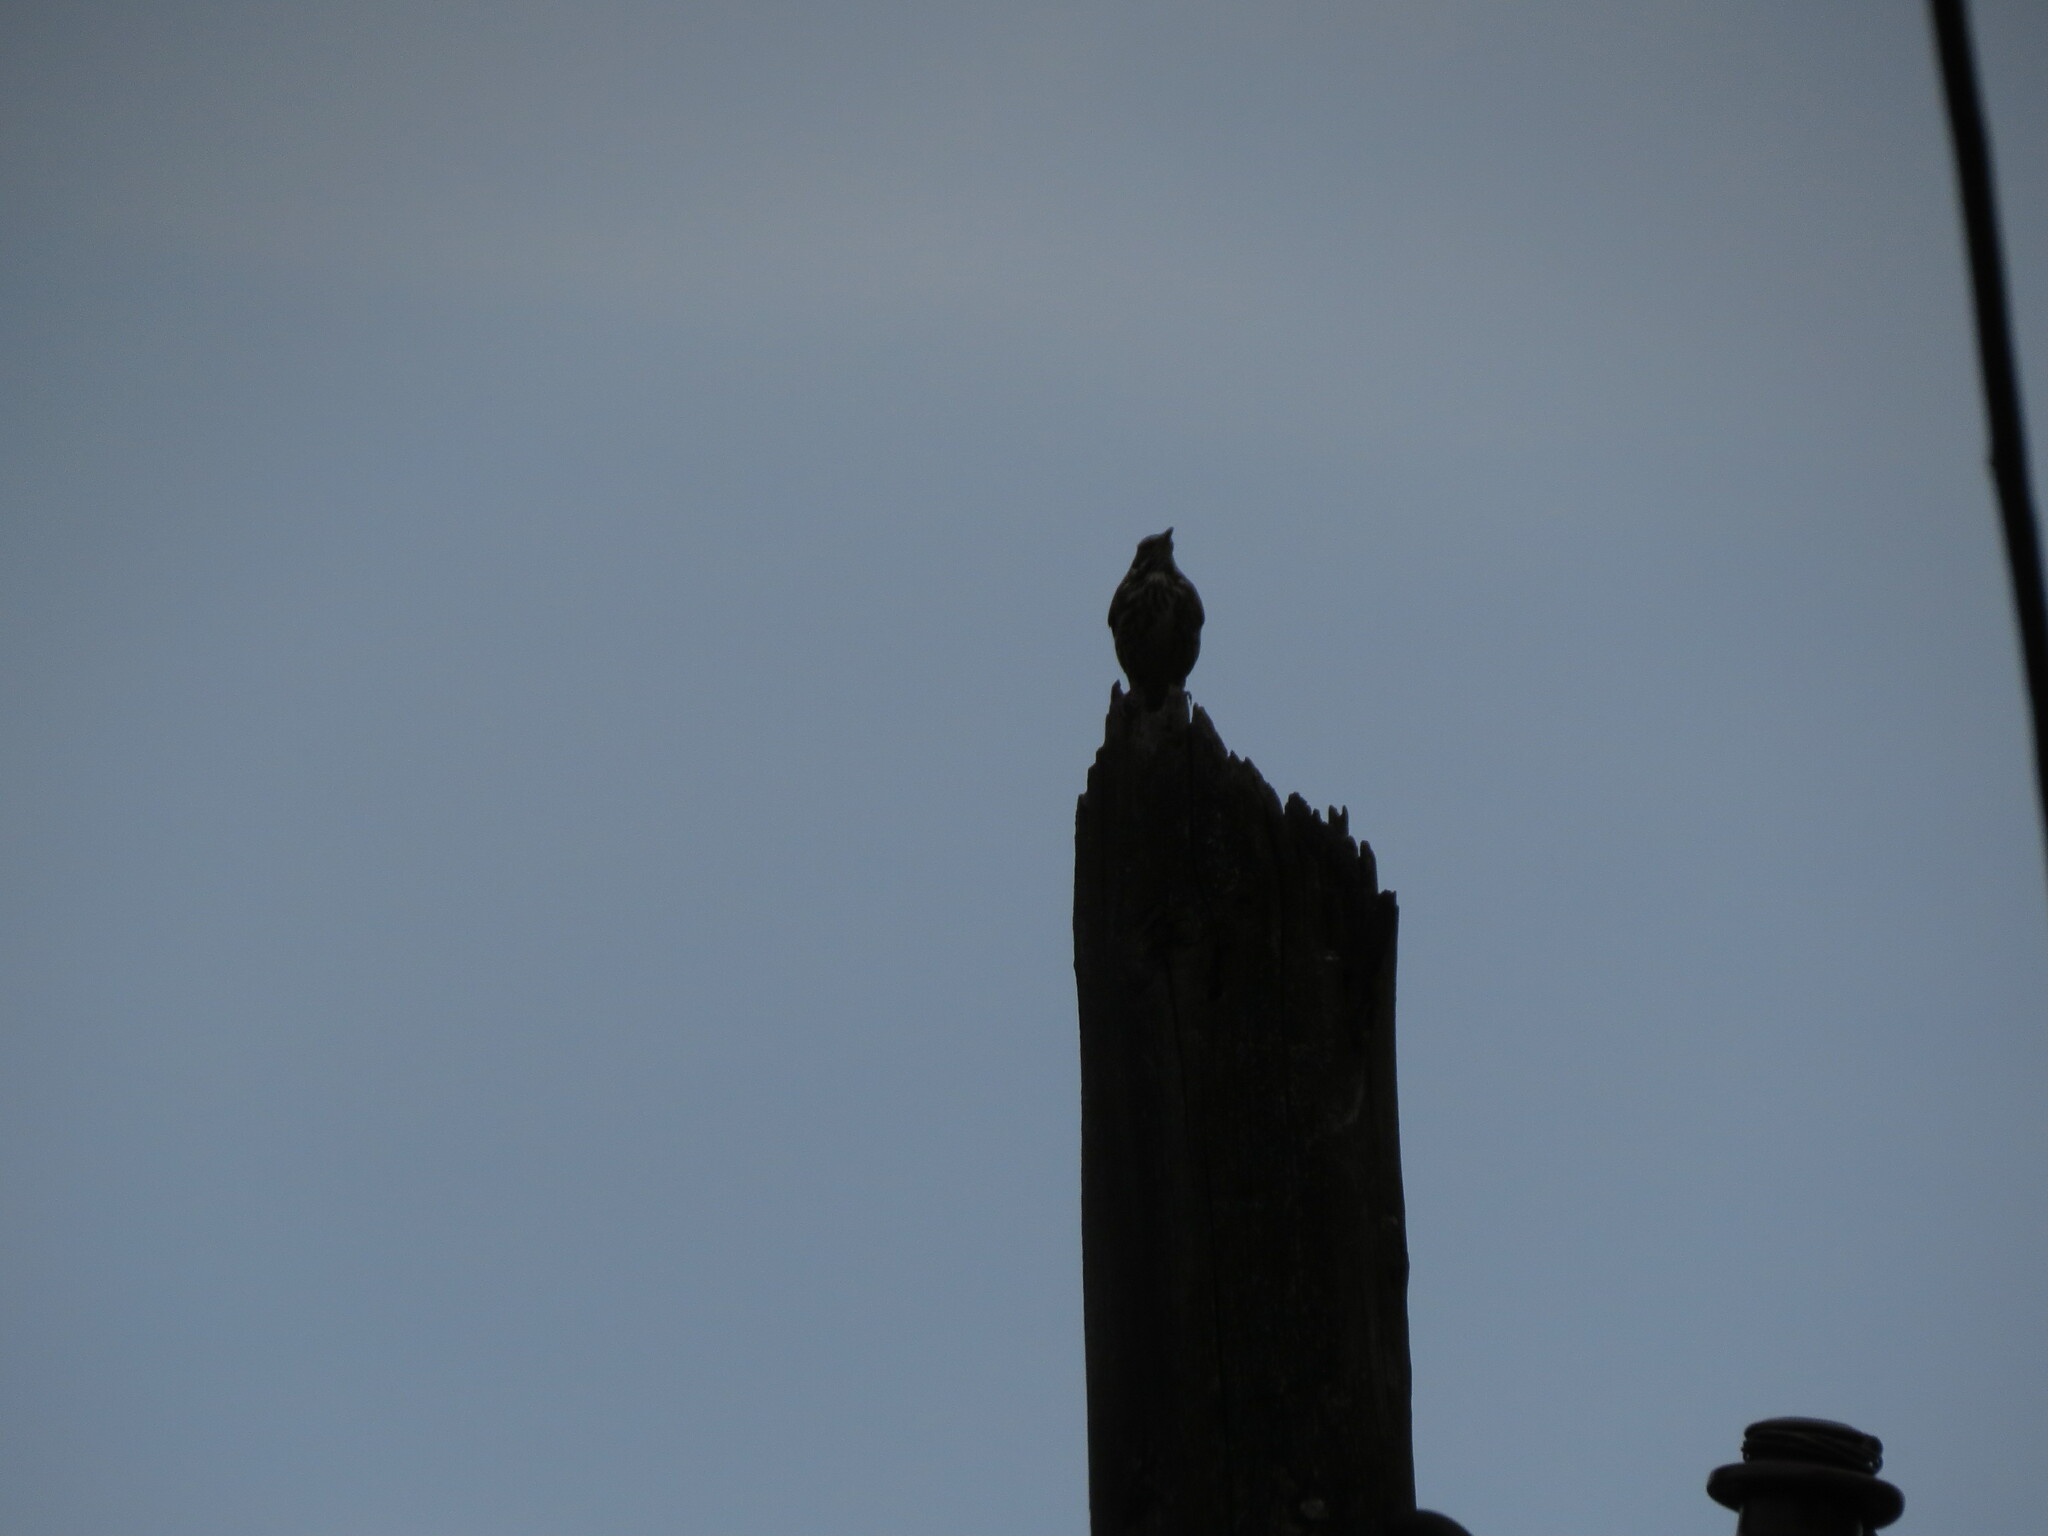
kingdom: Animalia
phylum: Chordata
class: Aves
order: Passeriformes
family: Turdidae
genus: Turdus
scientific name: Turdus iliacus
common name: Redwing
